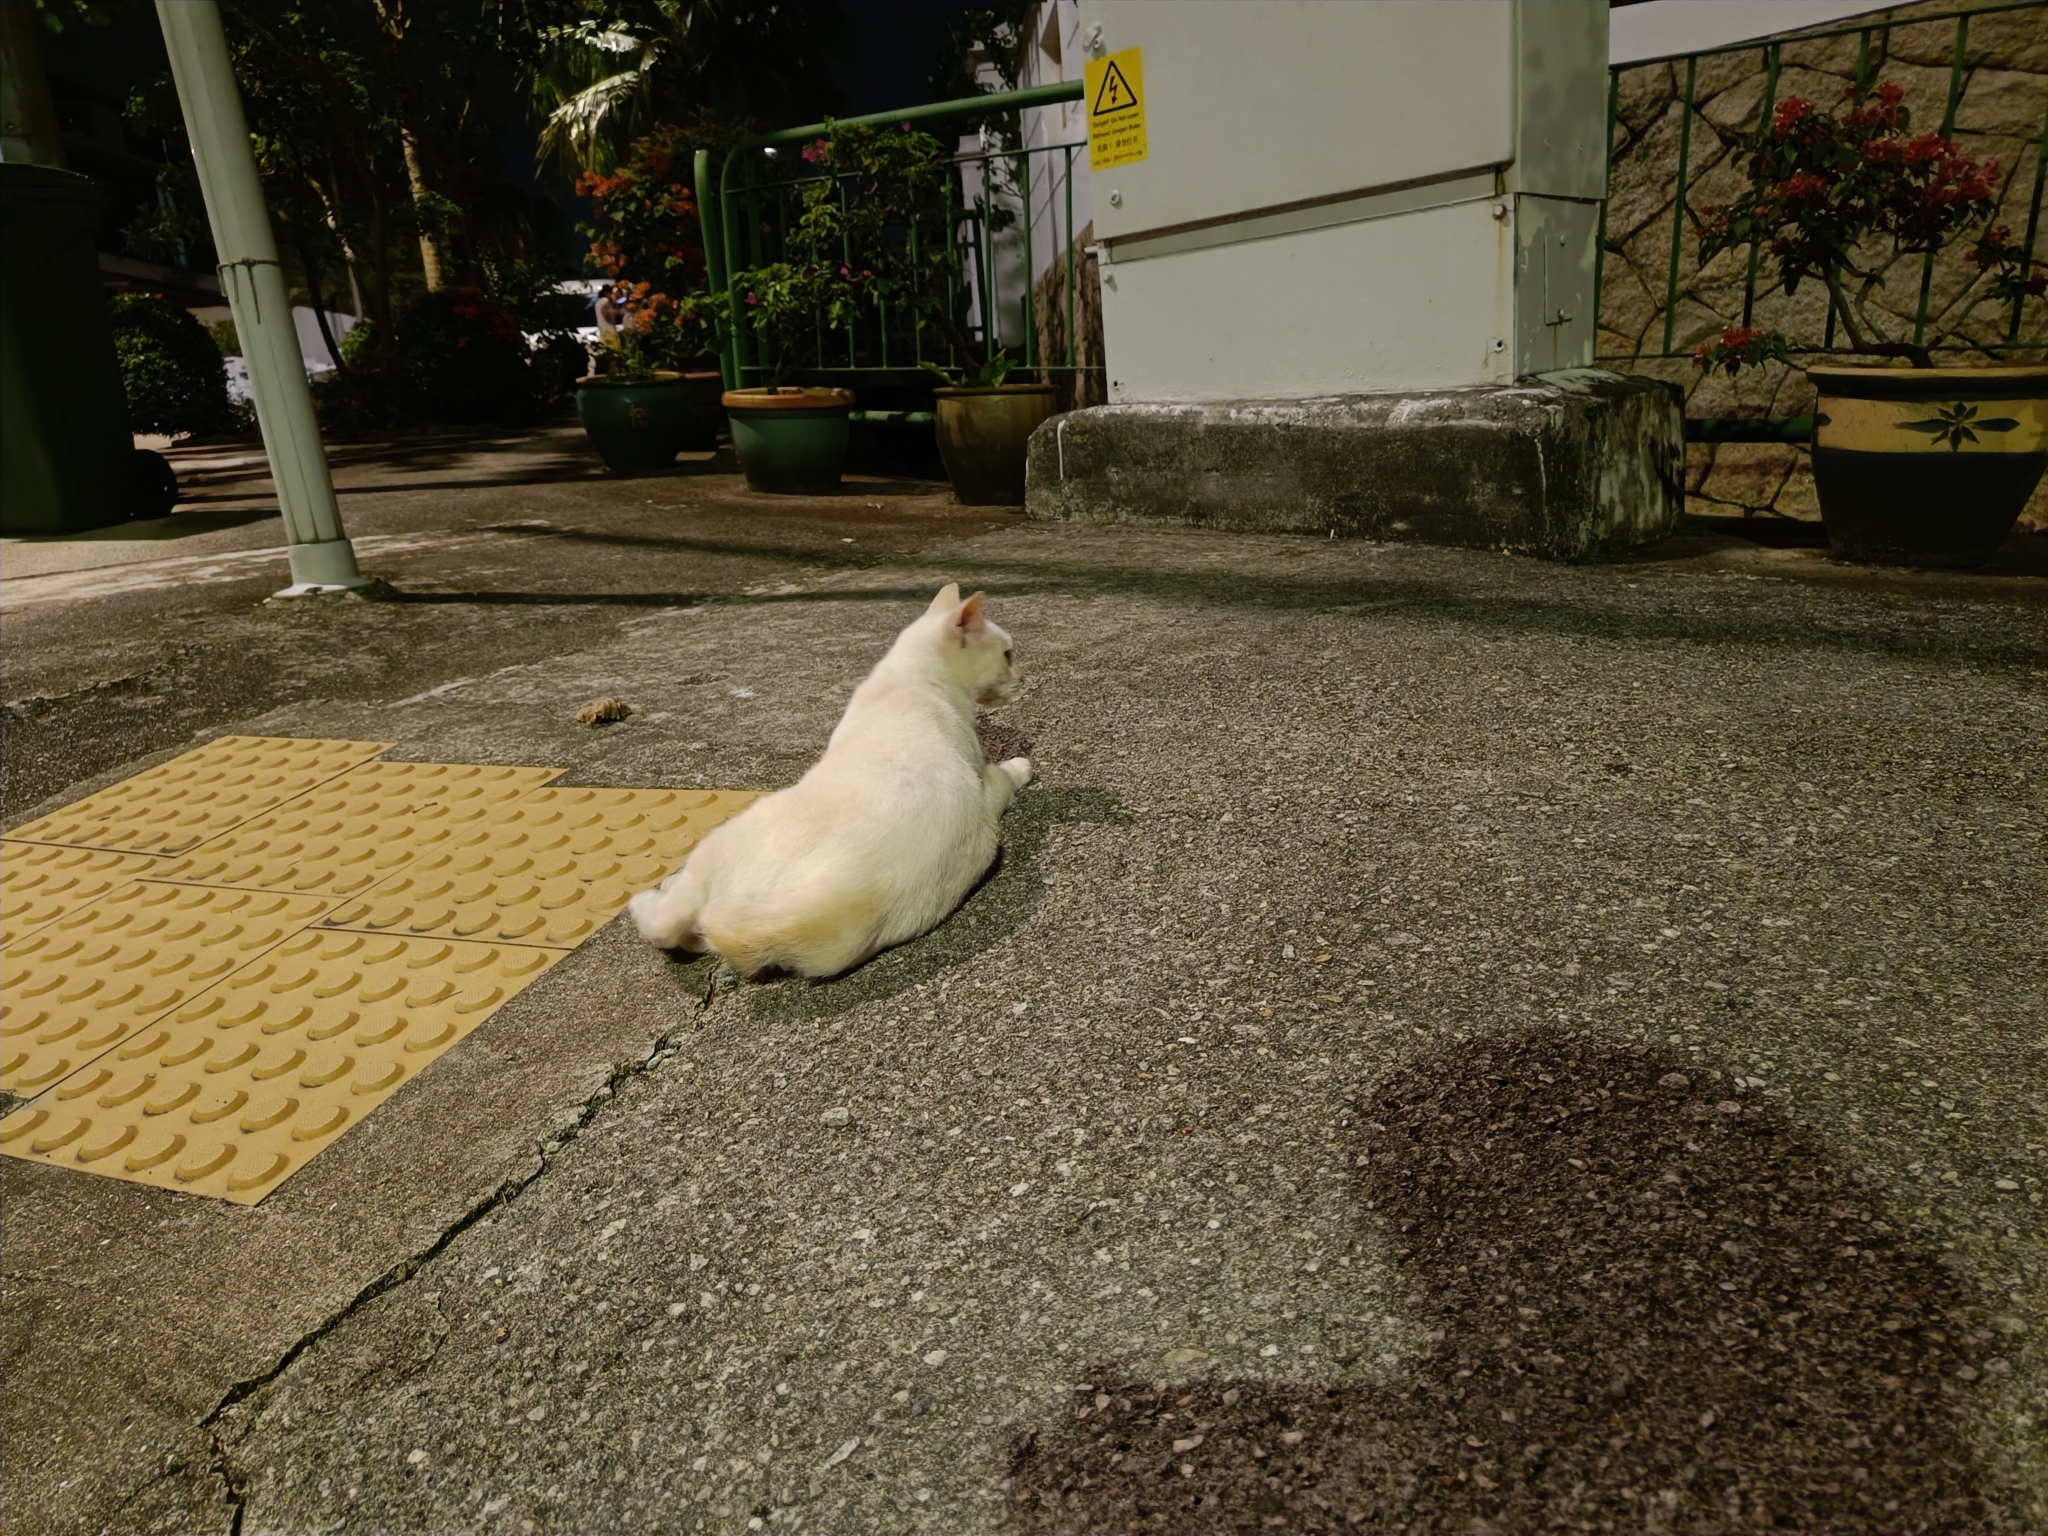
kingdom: Animalia
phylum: Chordata
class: Mammalia
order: Carnivora
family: Felidae
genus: Felis
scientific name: Felis catus
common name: Domestic cat
